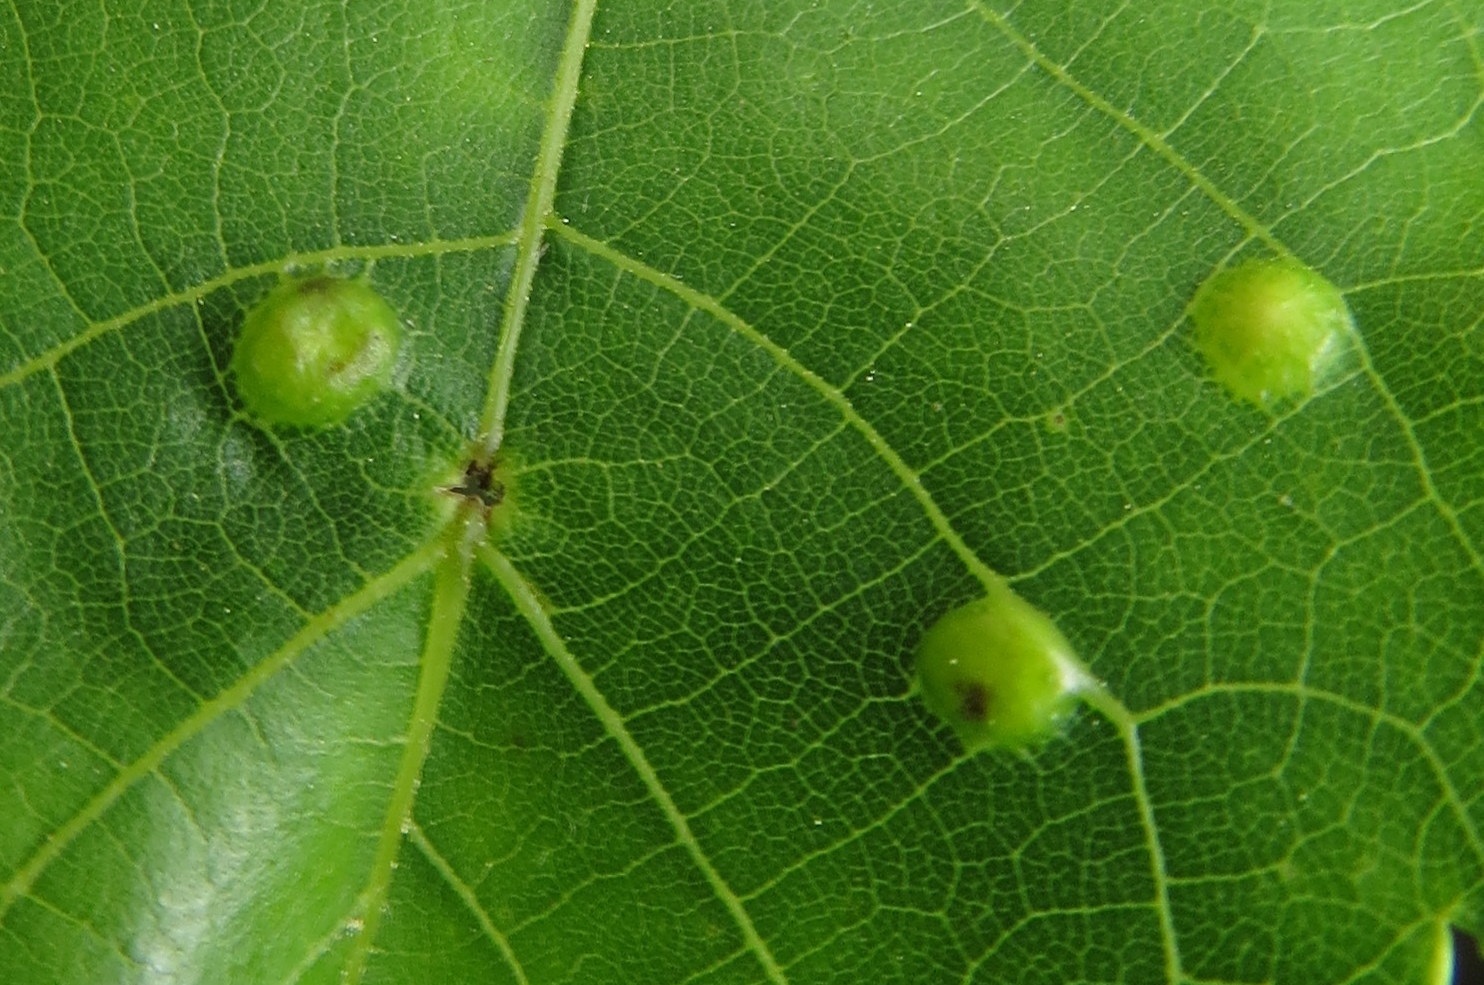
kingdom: Animalia
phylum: Arthropoda
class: Insecta
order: Hemiptera
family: Phylloxeridae
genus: Phylloxera
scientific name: Phylloxera caryae-semen
